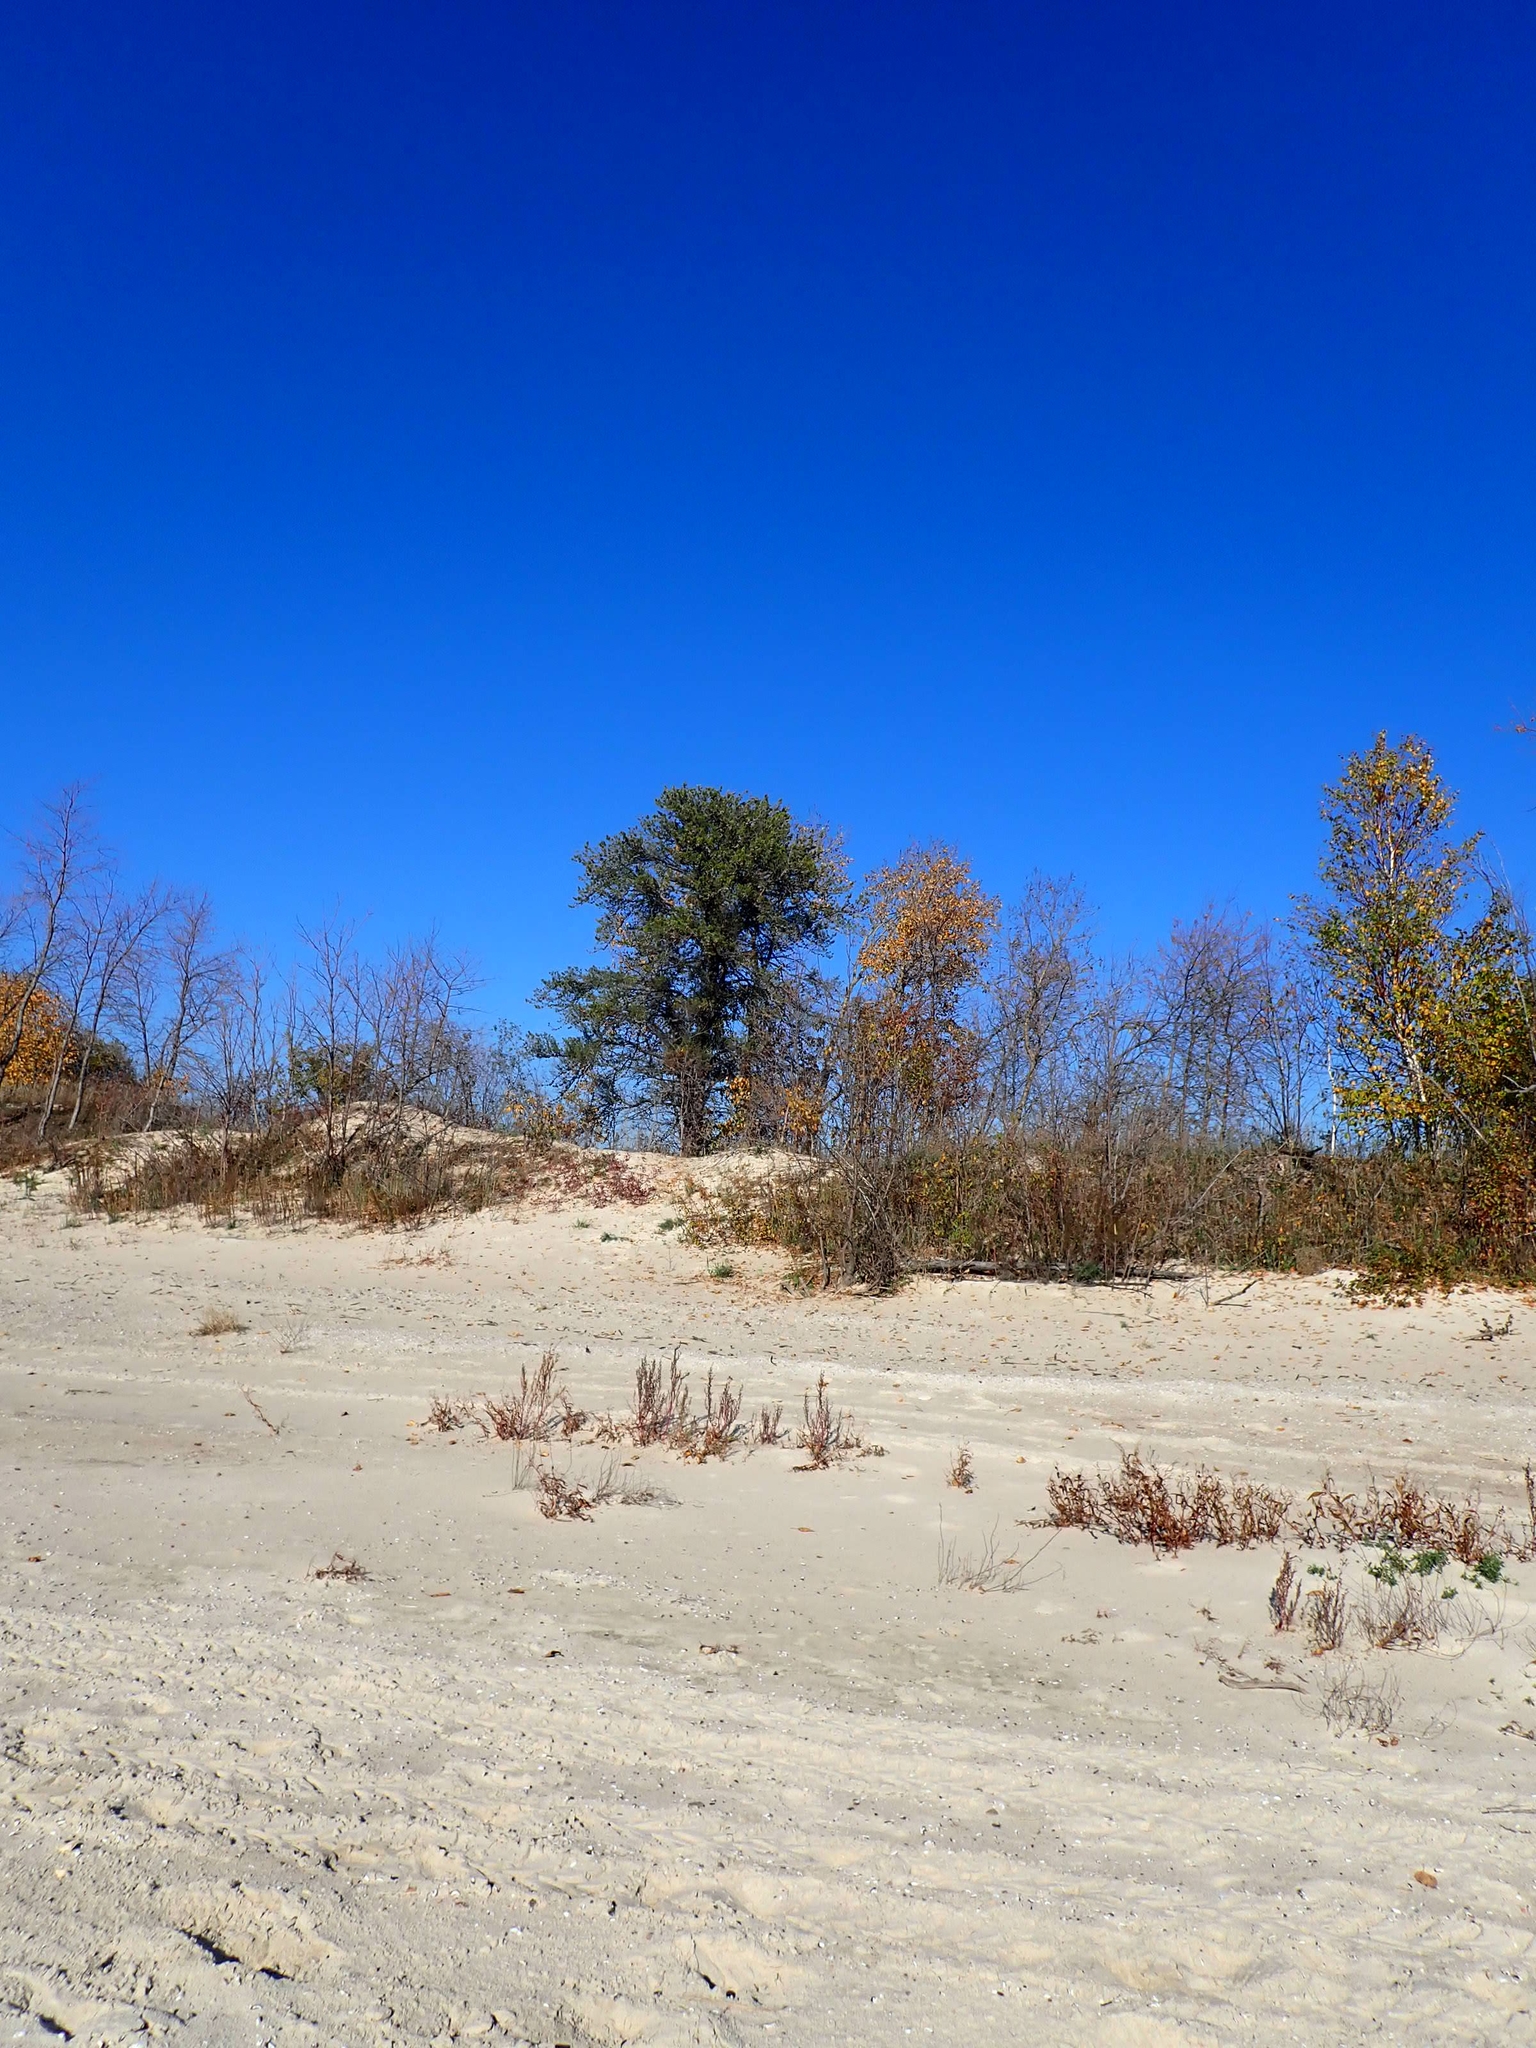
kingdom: Plantae
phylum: Tracheophyta
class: Magnoliopsida
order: Fagales
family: Fagaceae
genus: Quercus
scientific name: Quercus macrocarpa
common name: Bur oak
